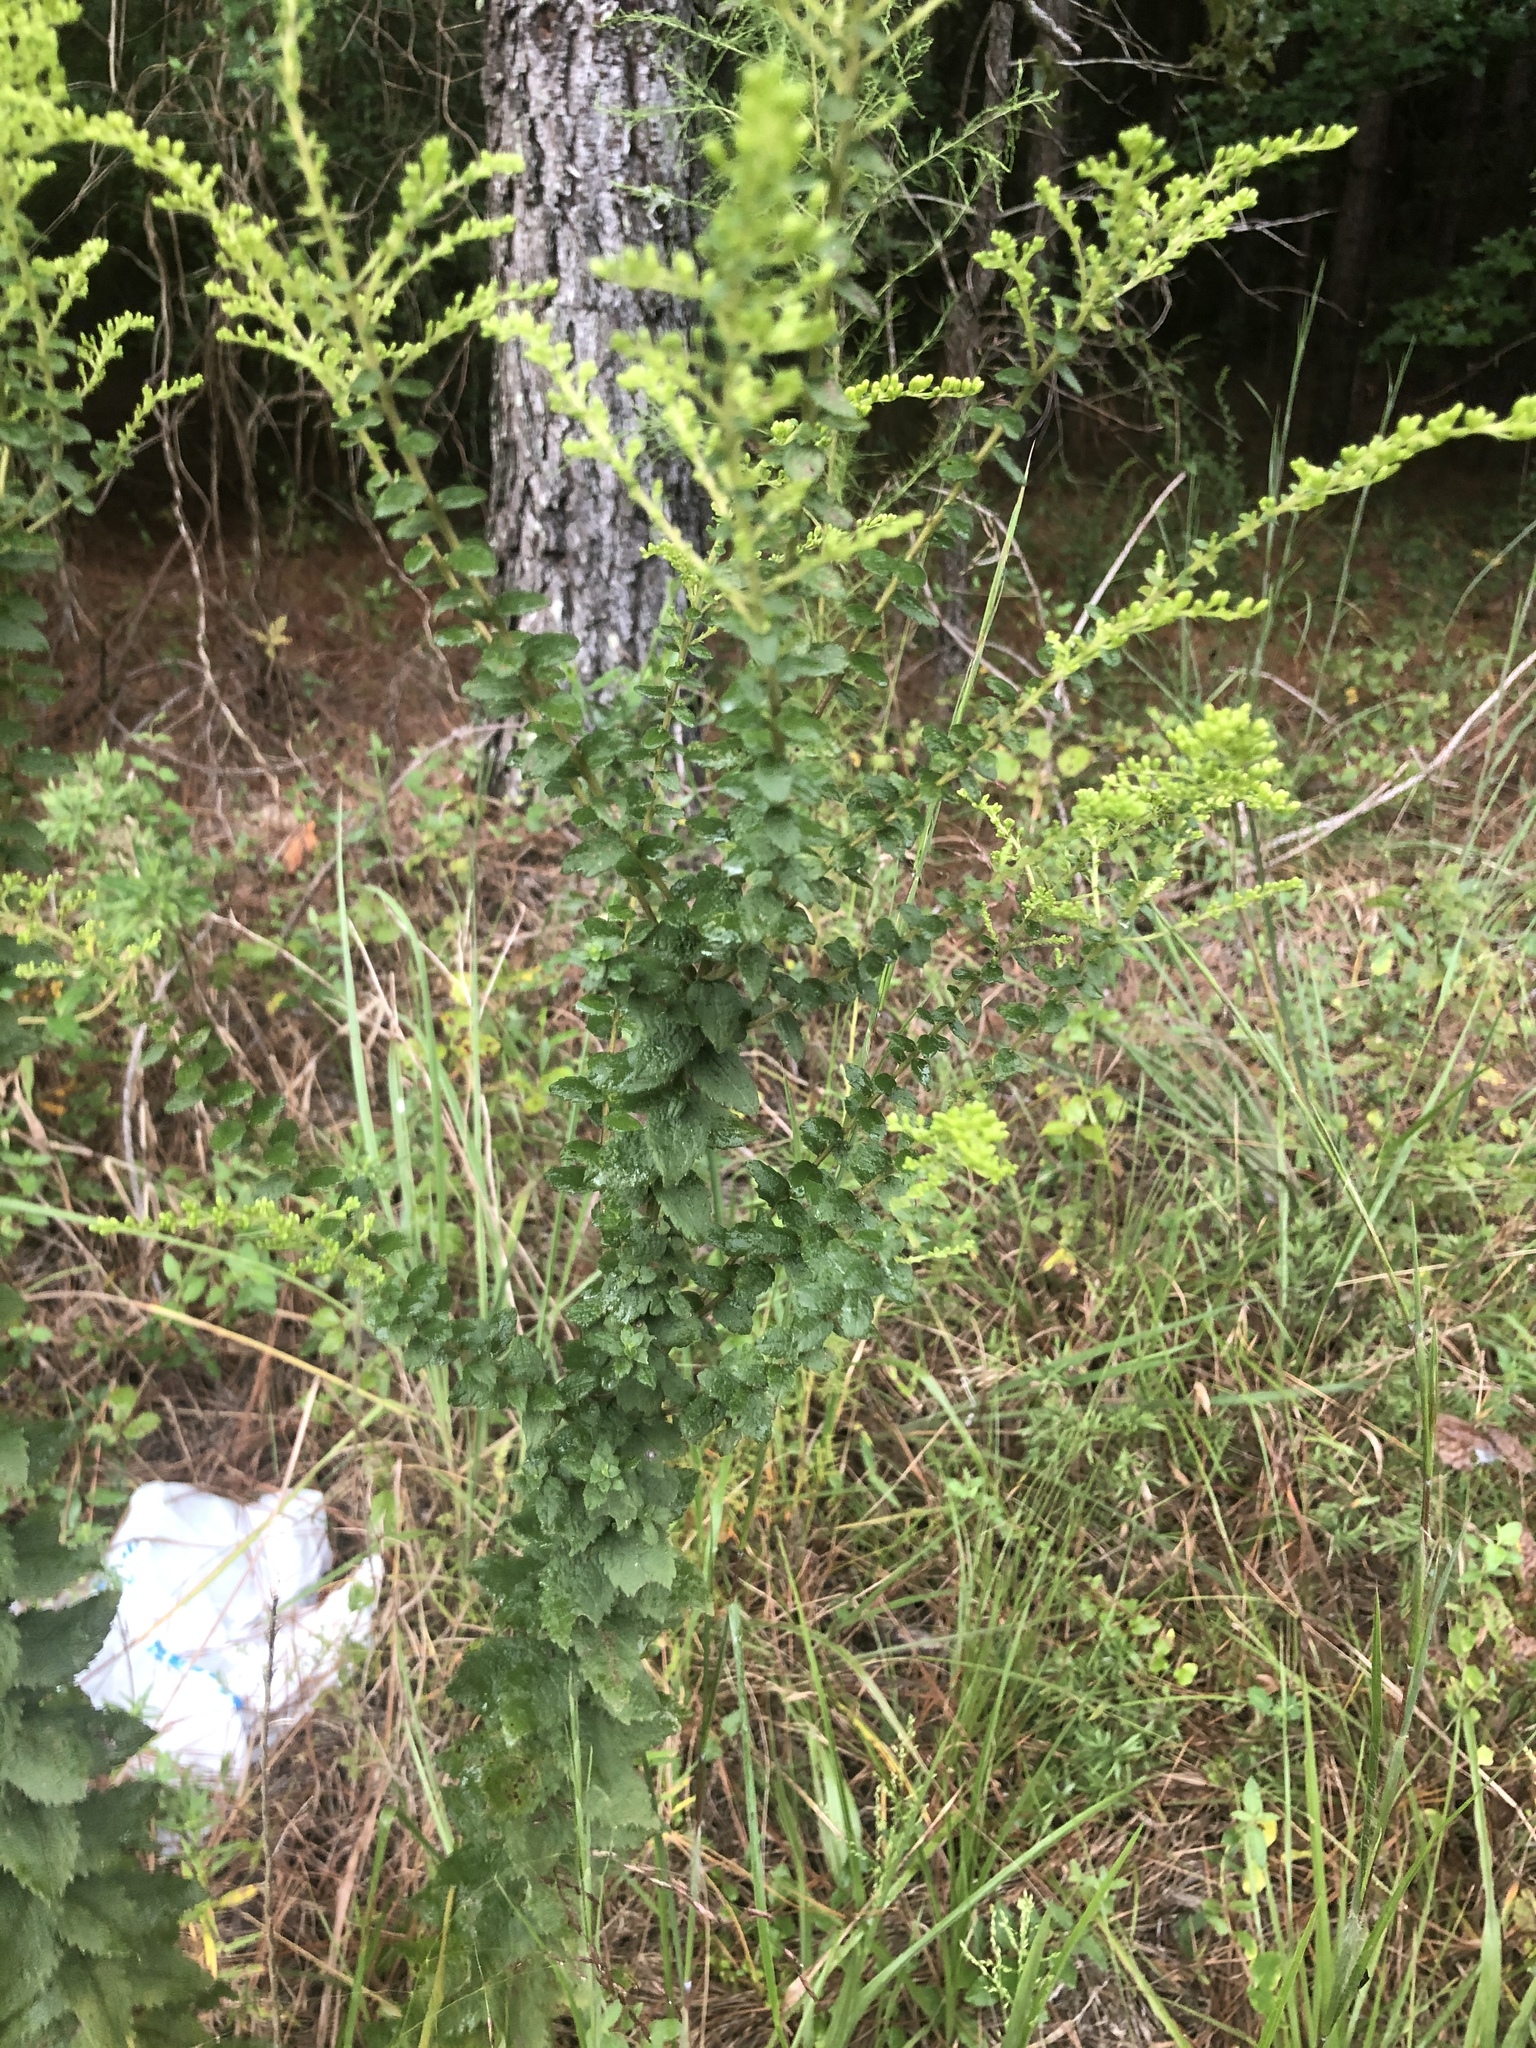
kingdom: Plantae
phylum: Tracheophyta
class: Magnoliopsida
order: Asterales
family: Asteraceae
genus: Solidago
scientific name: Solidago rugosa
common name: Rough-stemmed goldenrod
